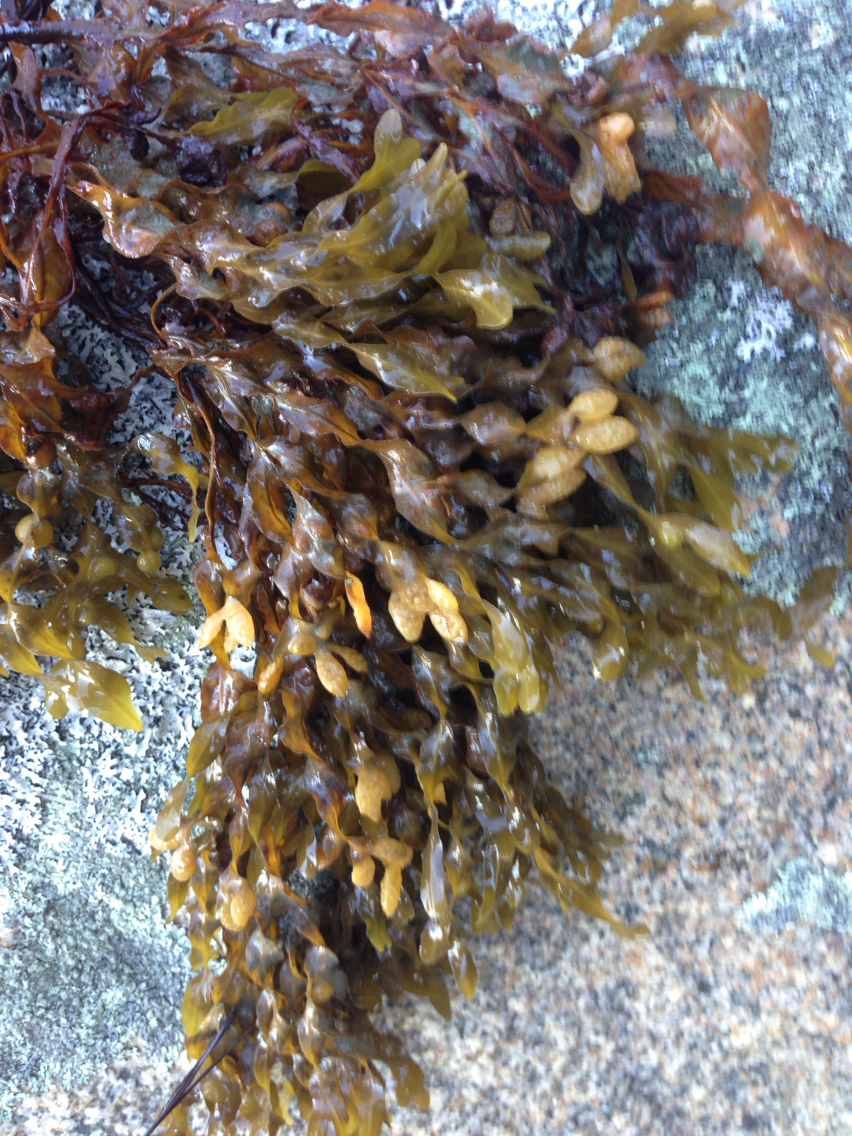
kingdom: Chromista
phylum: Ochrophyta
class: Phaeophyceae
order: Fucales
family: Fucaceae
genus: Fucus
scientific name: Fucus spiralis
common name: Spiral wrack
